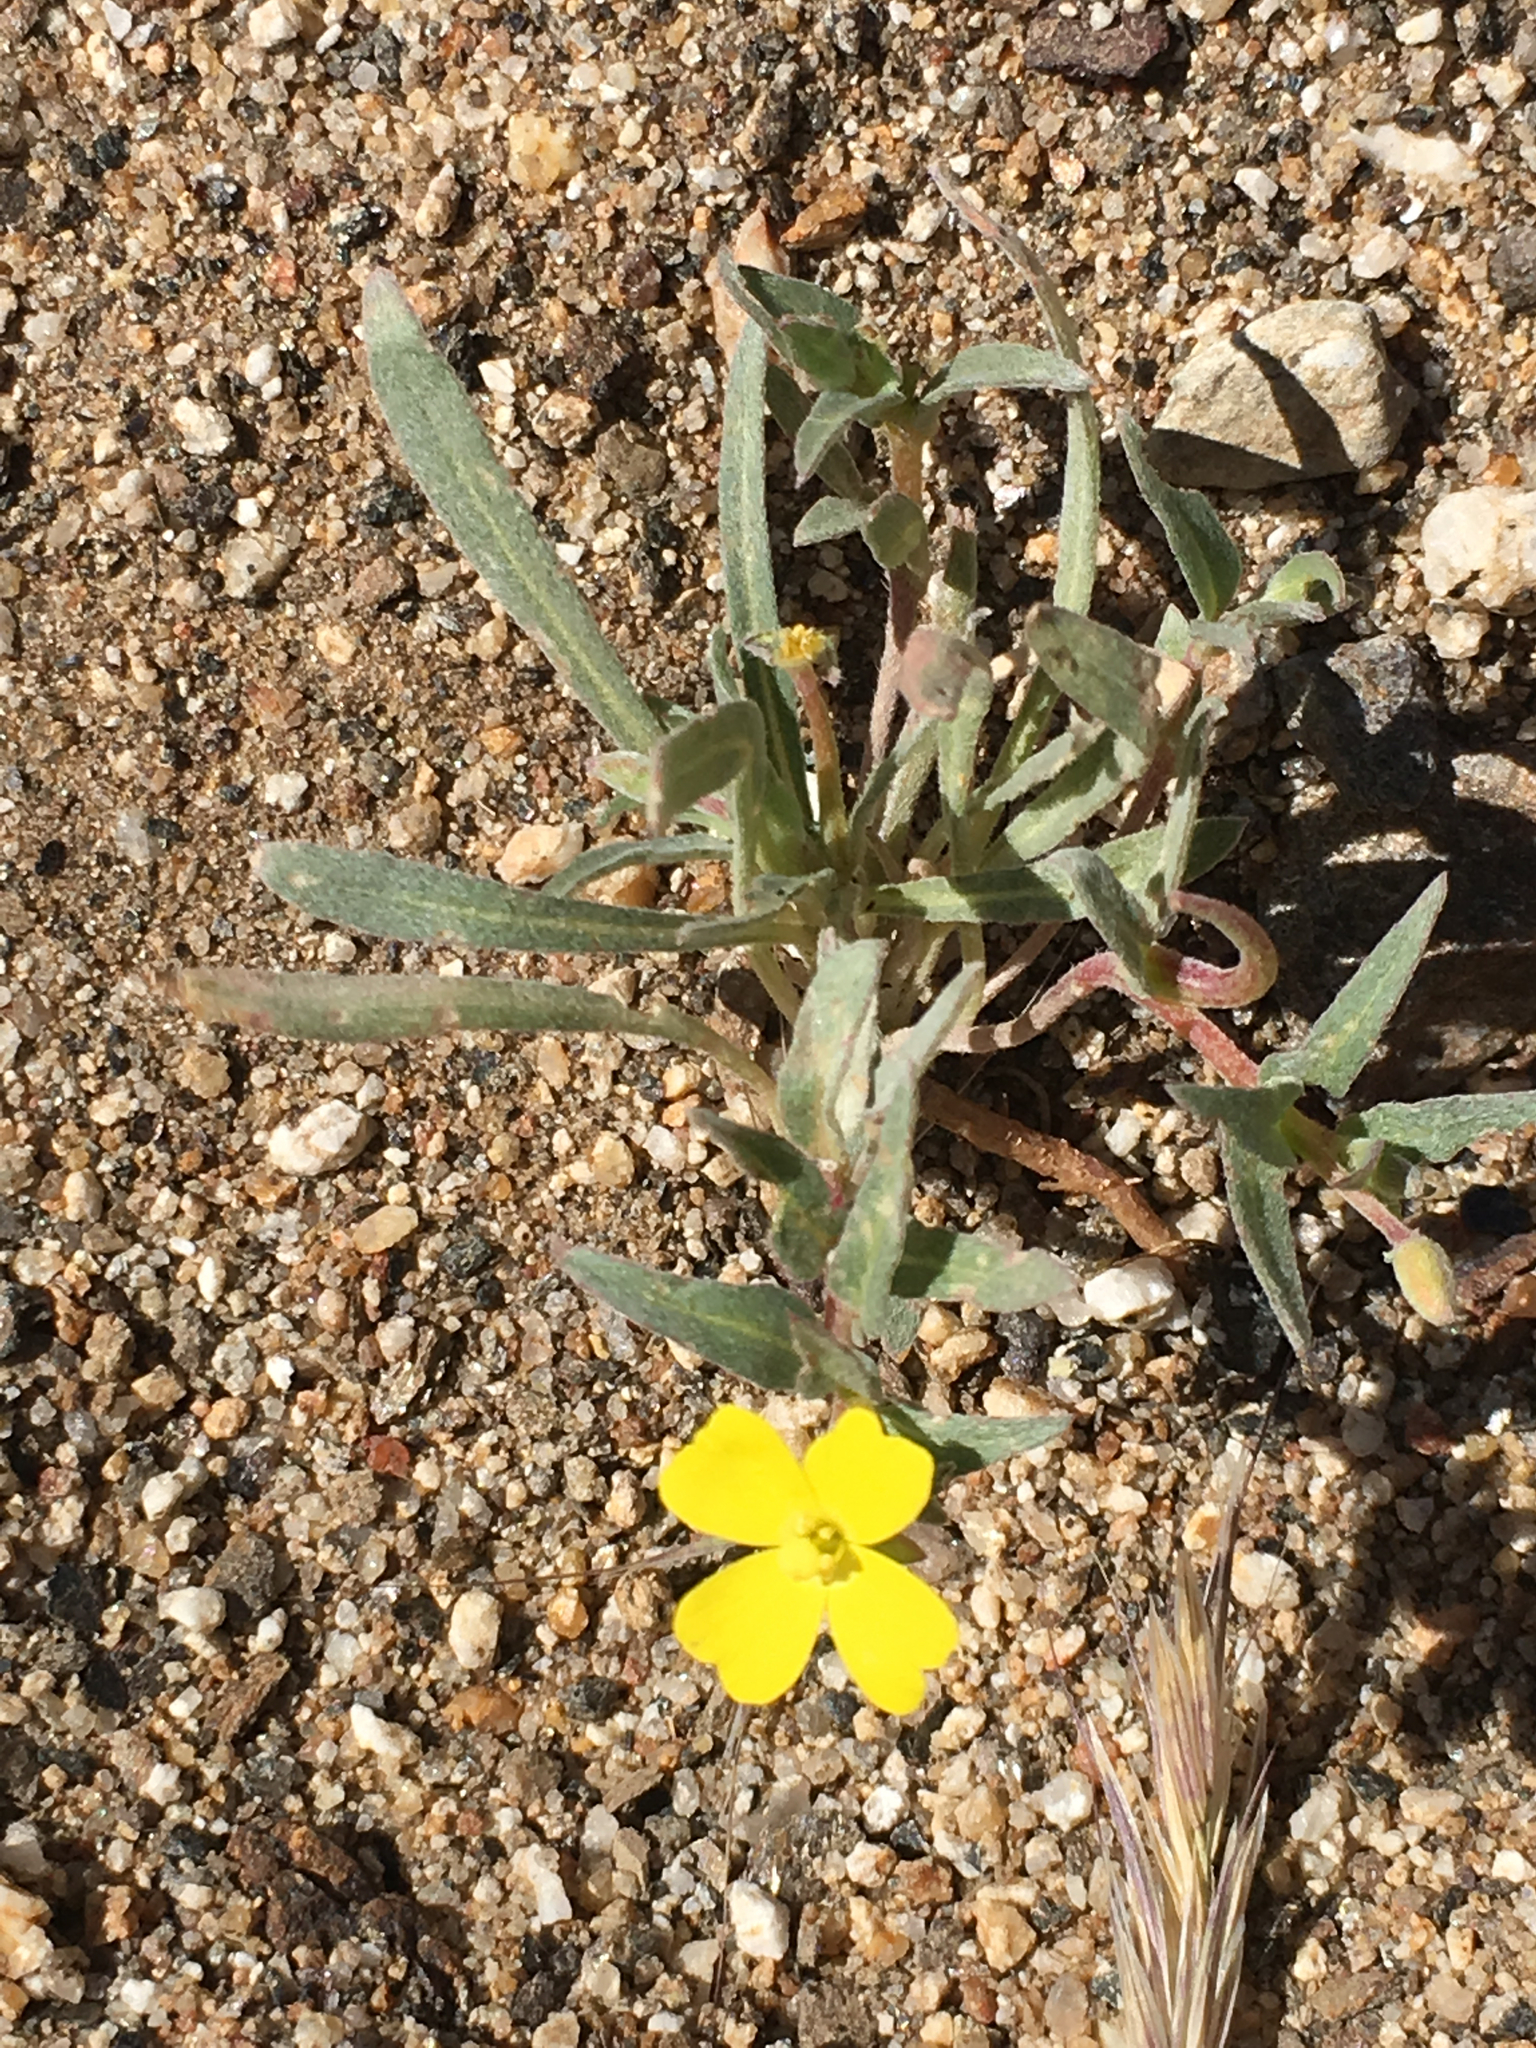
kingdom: Plantae
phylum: Tracheophyta
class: Magnoliopsida
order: Myrtales
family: Onagraceae
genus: Camissoniopsis
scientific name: Camissoniopsis pallida
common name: Paleyellow suncup
